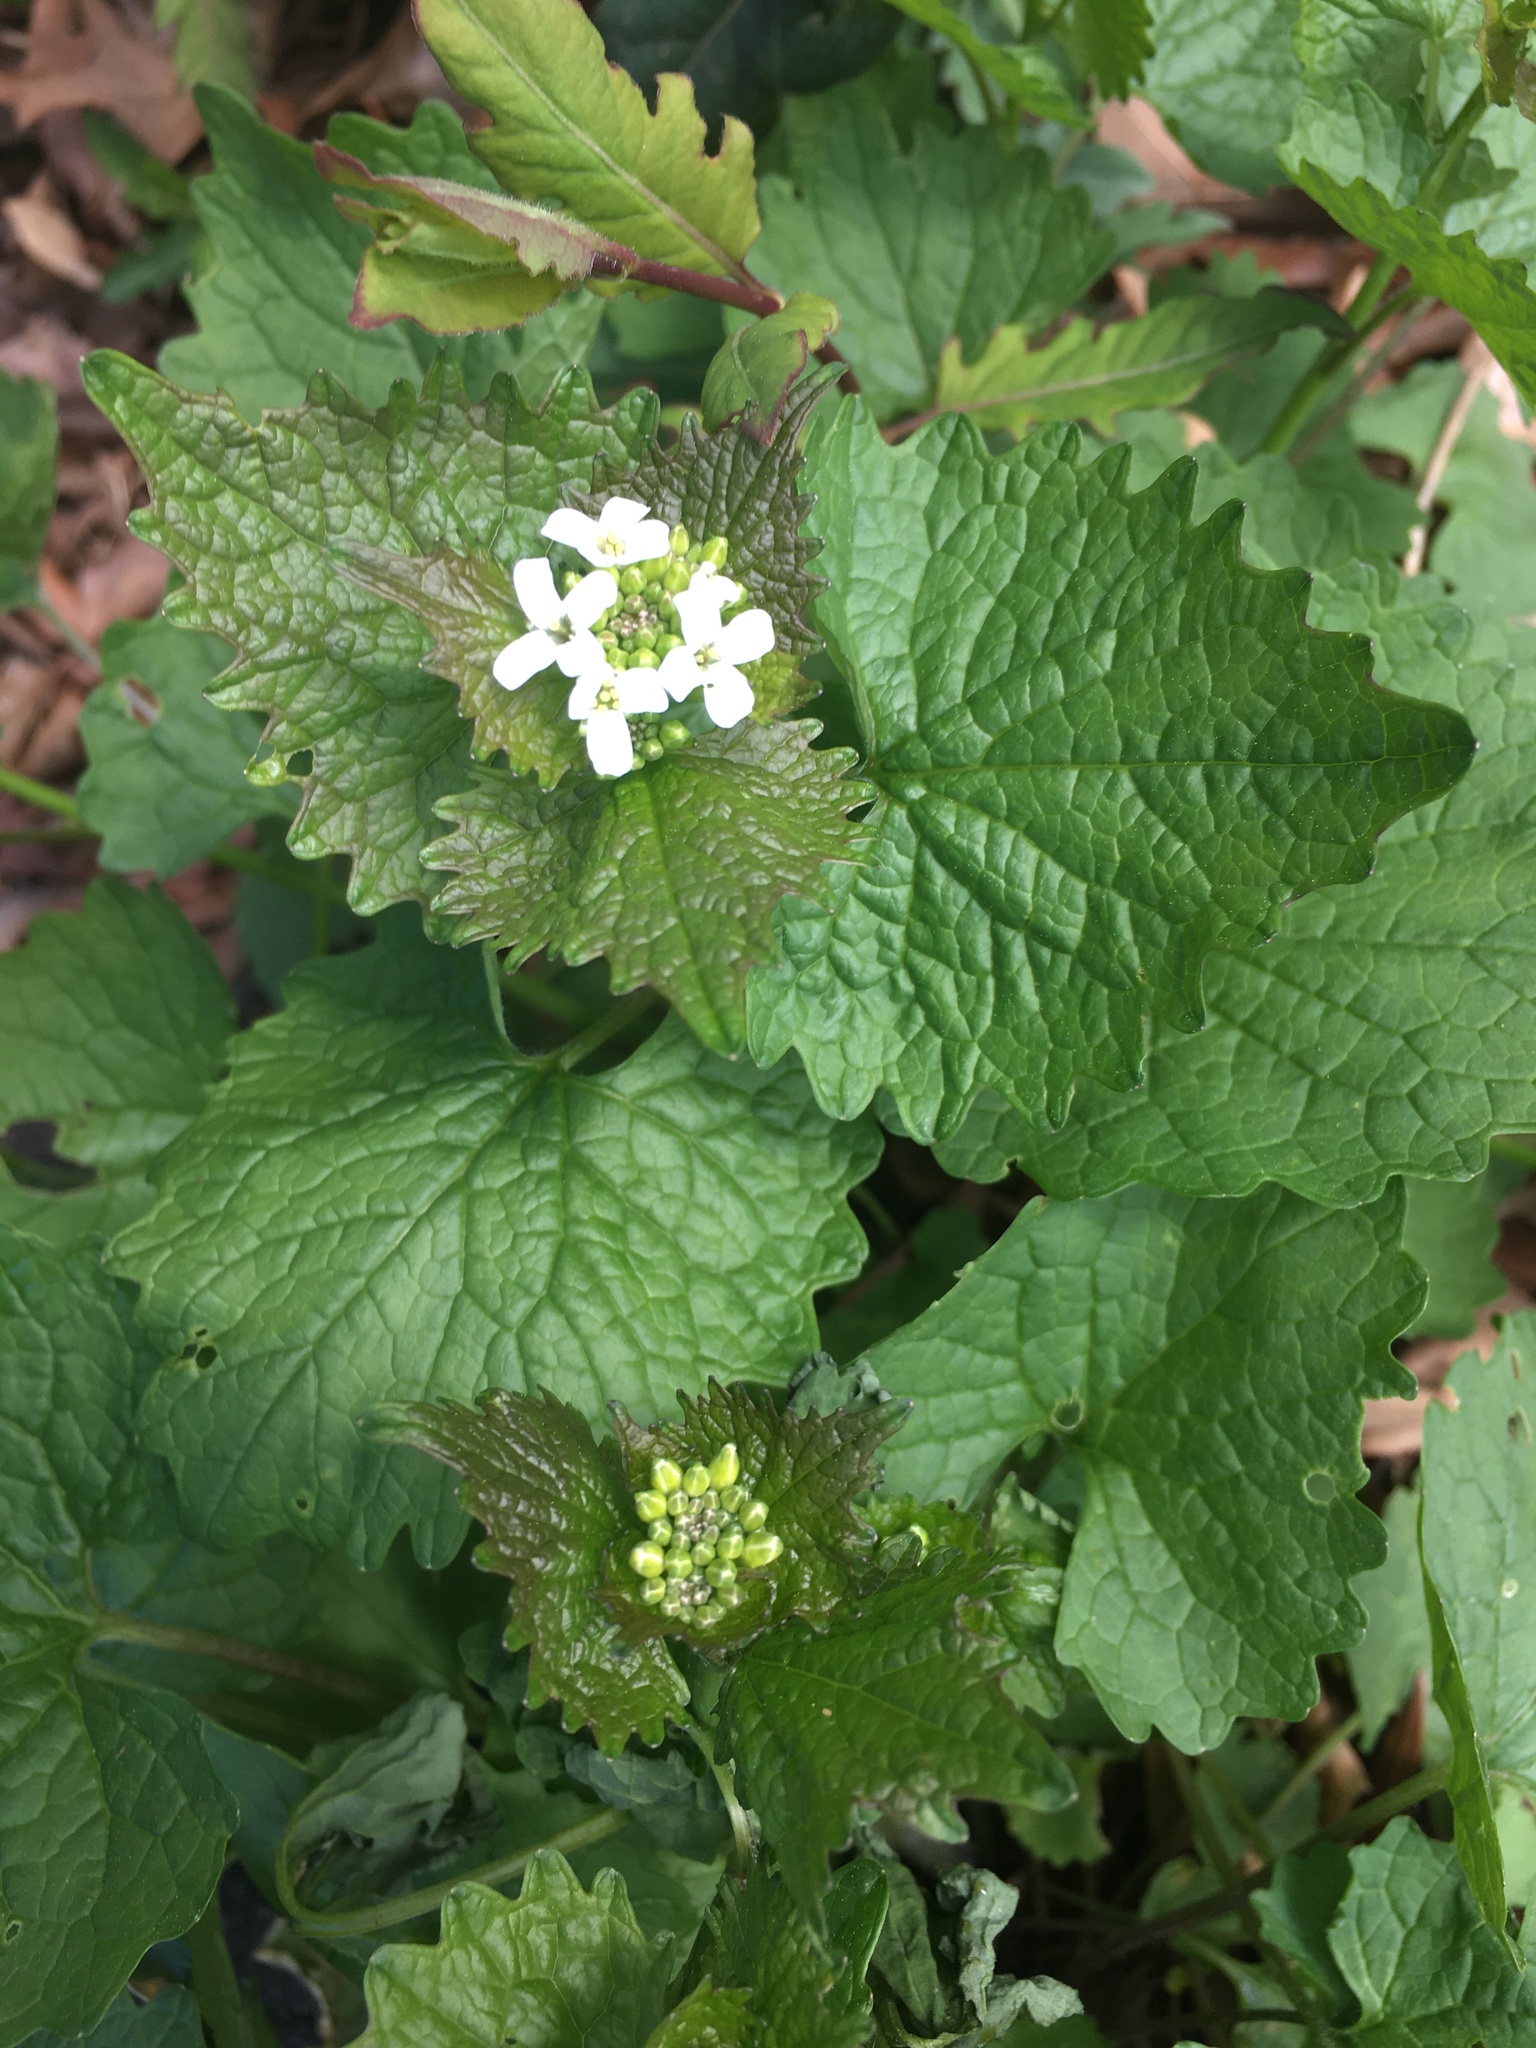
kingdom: Plantae
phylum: Tracheophyta
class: Magnoliopsida
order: Brassicales
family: Brassicaceae
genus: Alliaria
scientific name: Alliaria petiolata
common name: Garlic mustard
